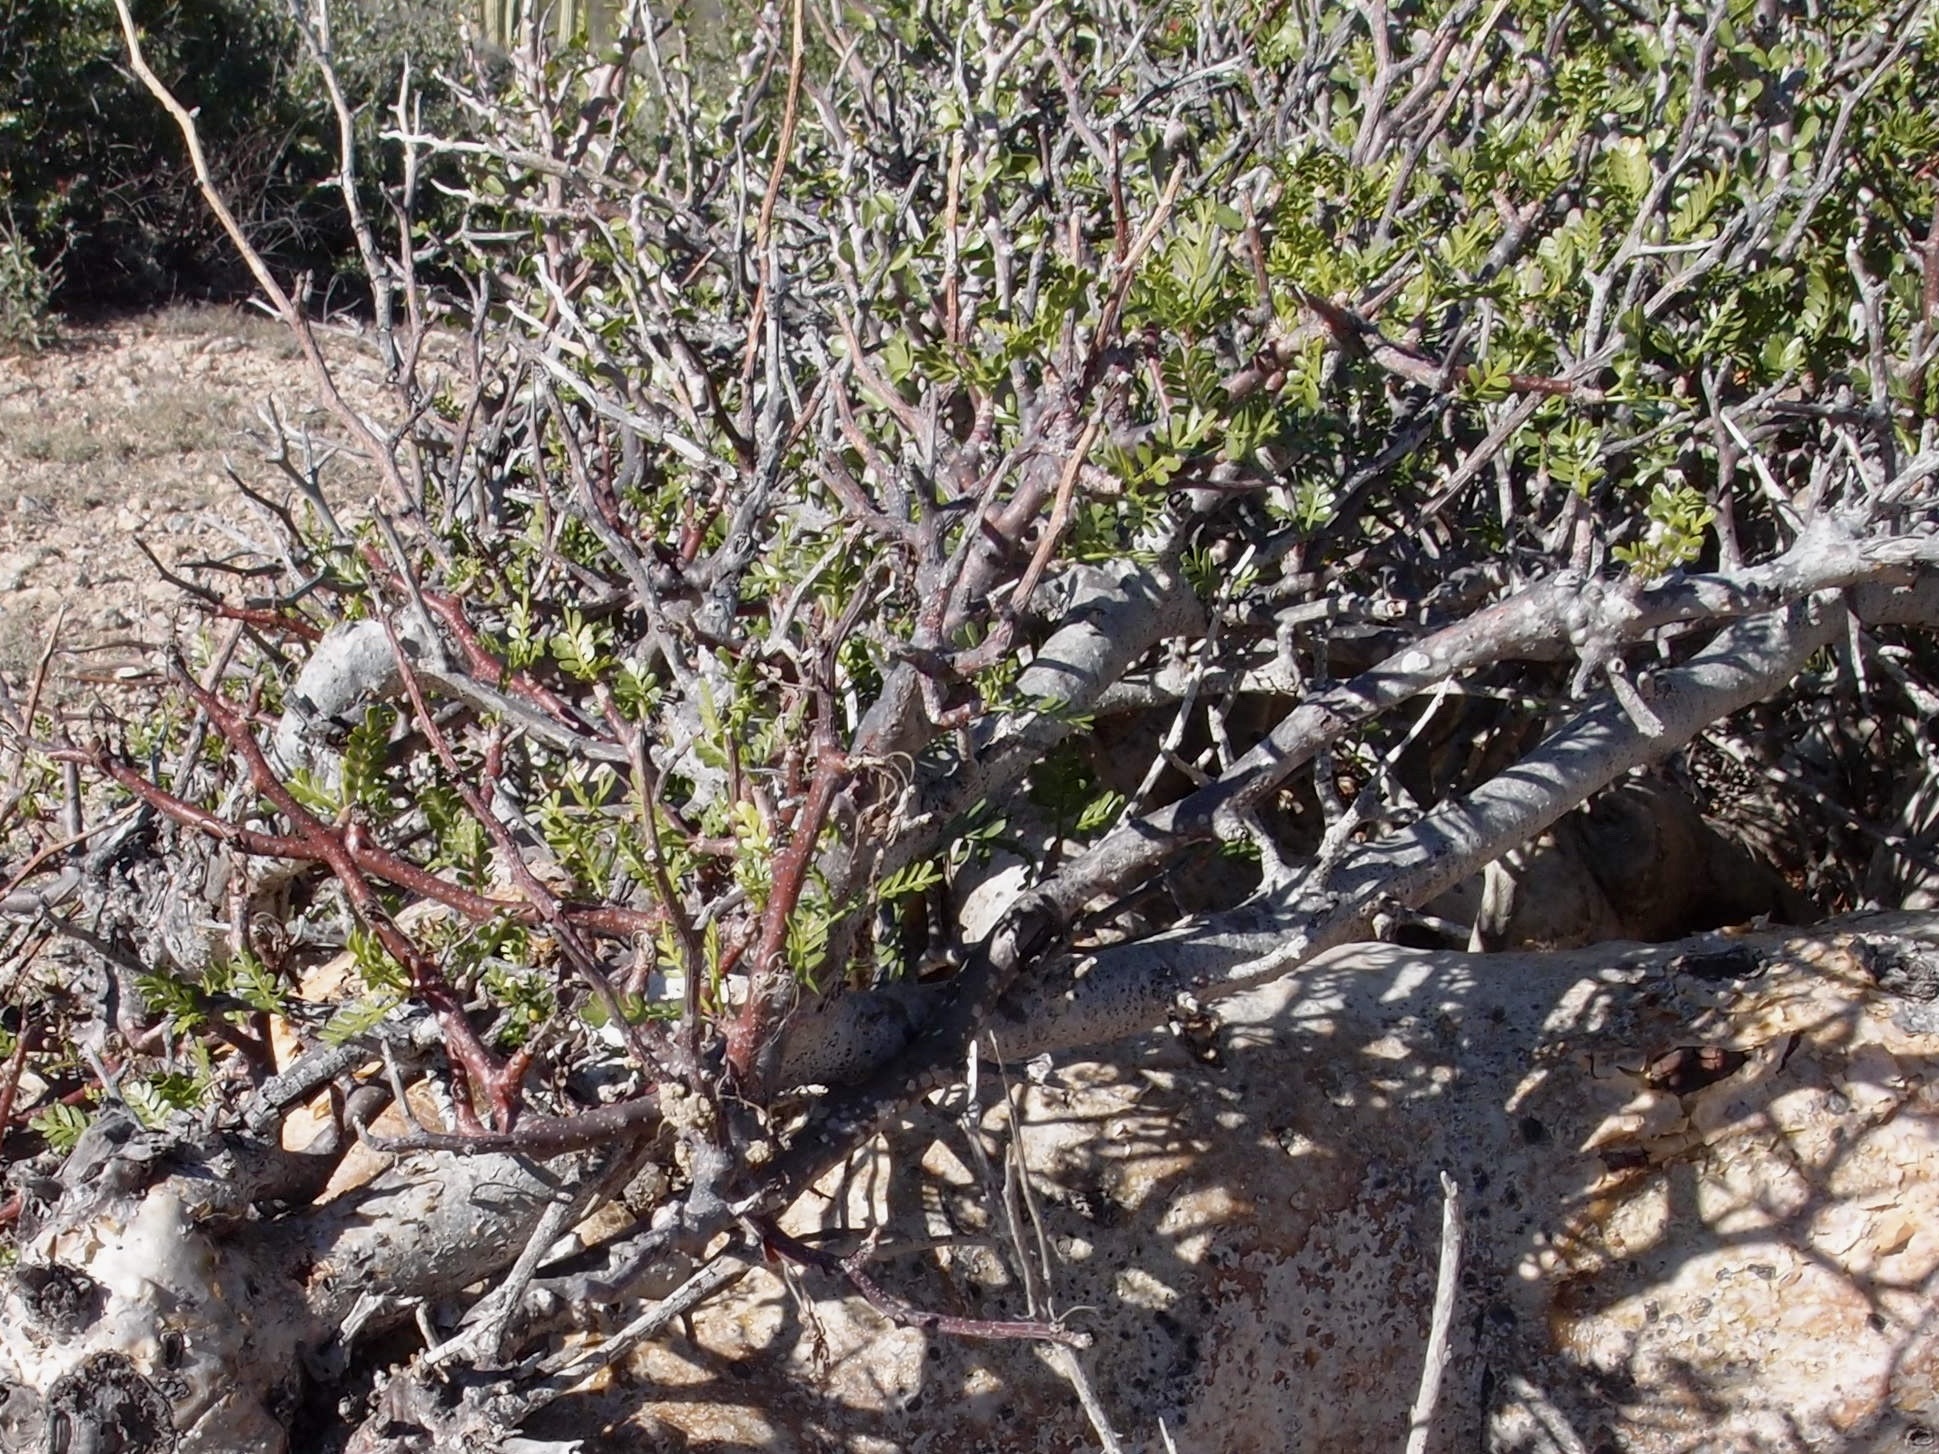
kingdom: Plantae
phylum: Tracheophyta
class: Magnoliopsida
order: Sapindales
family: Burseraceae
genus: Bursera
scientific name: Bursera microphylla
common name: Elephant tree
